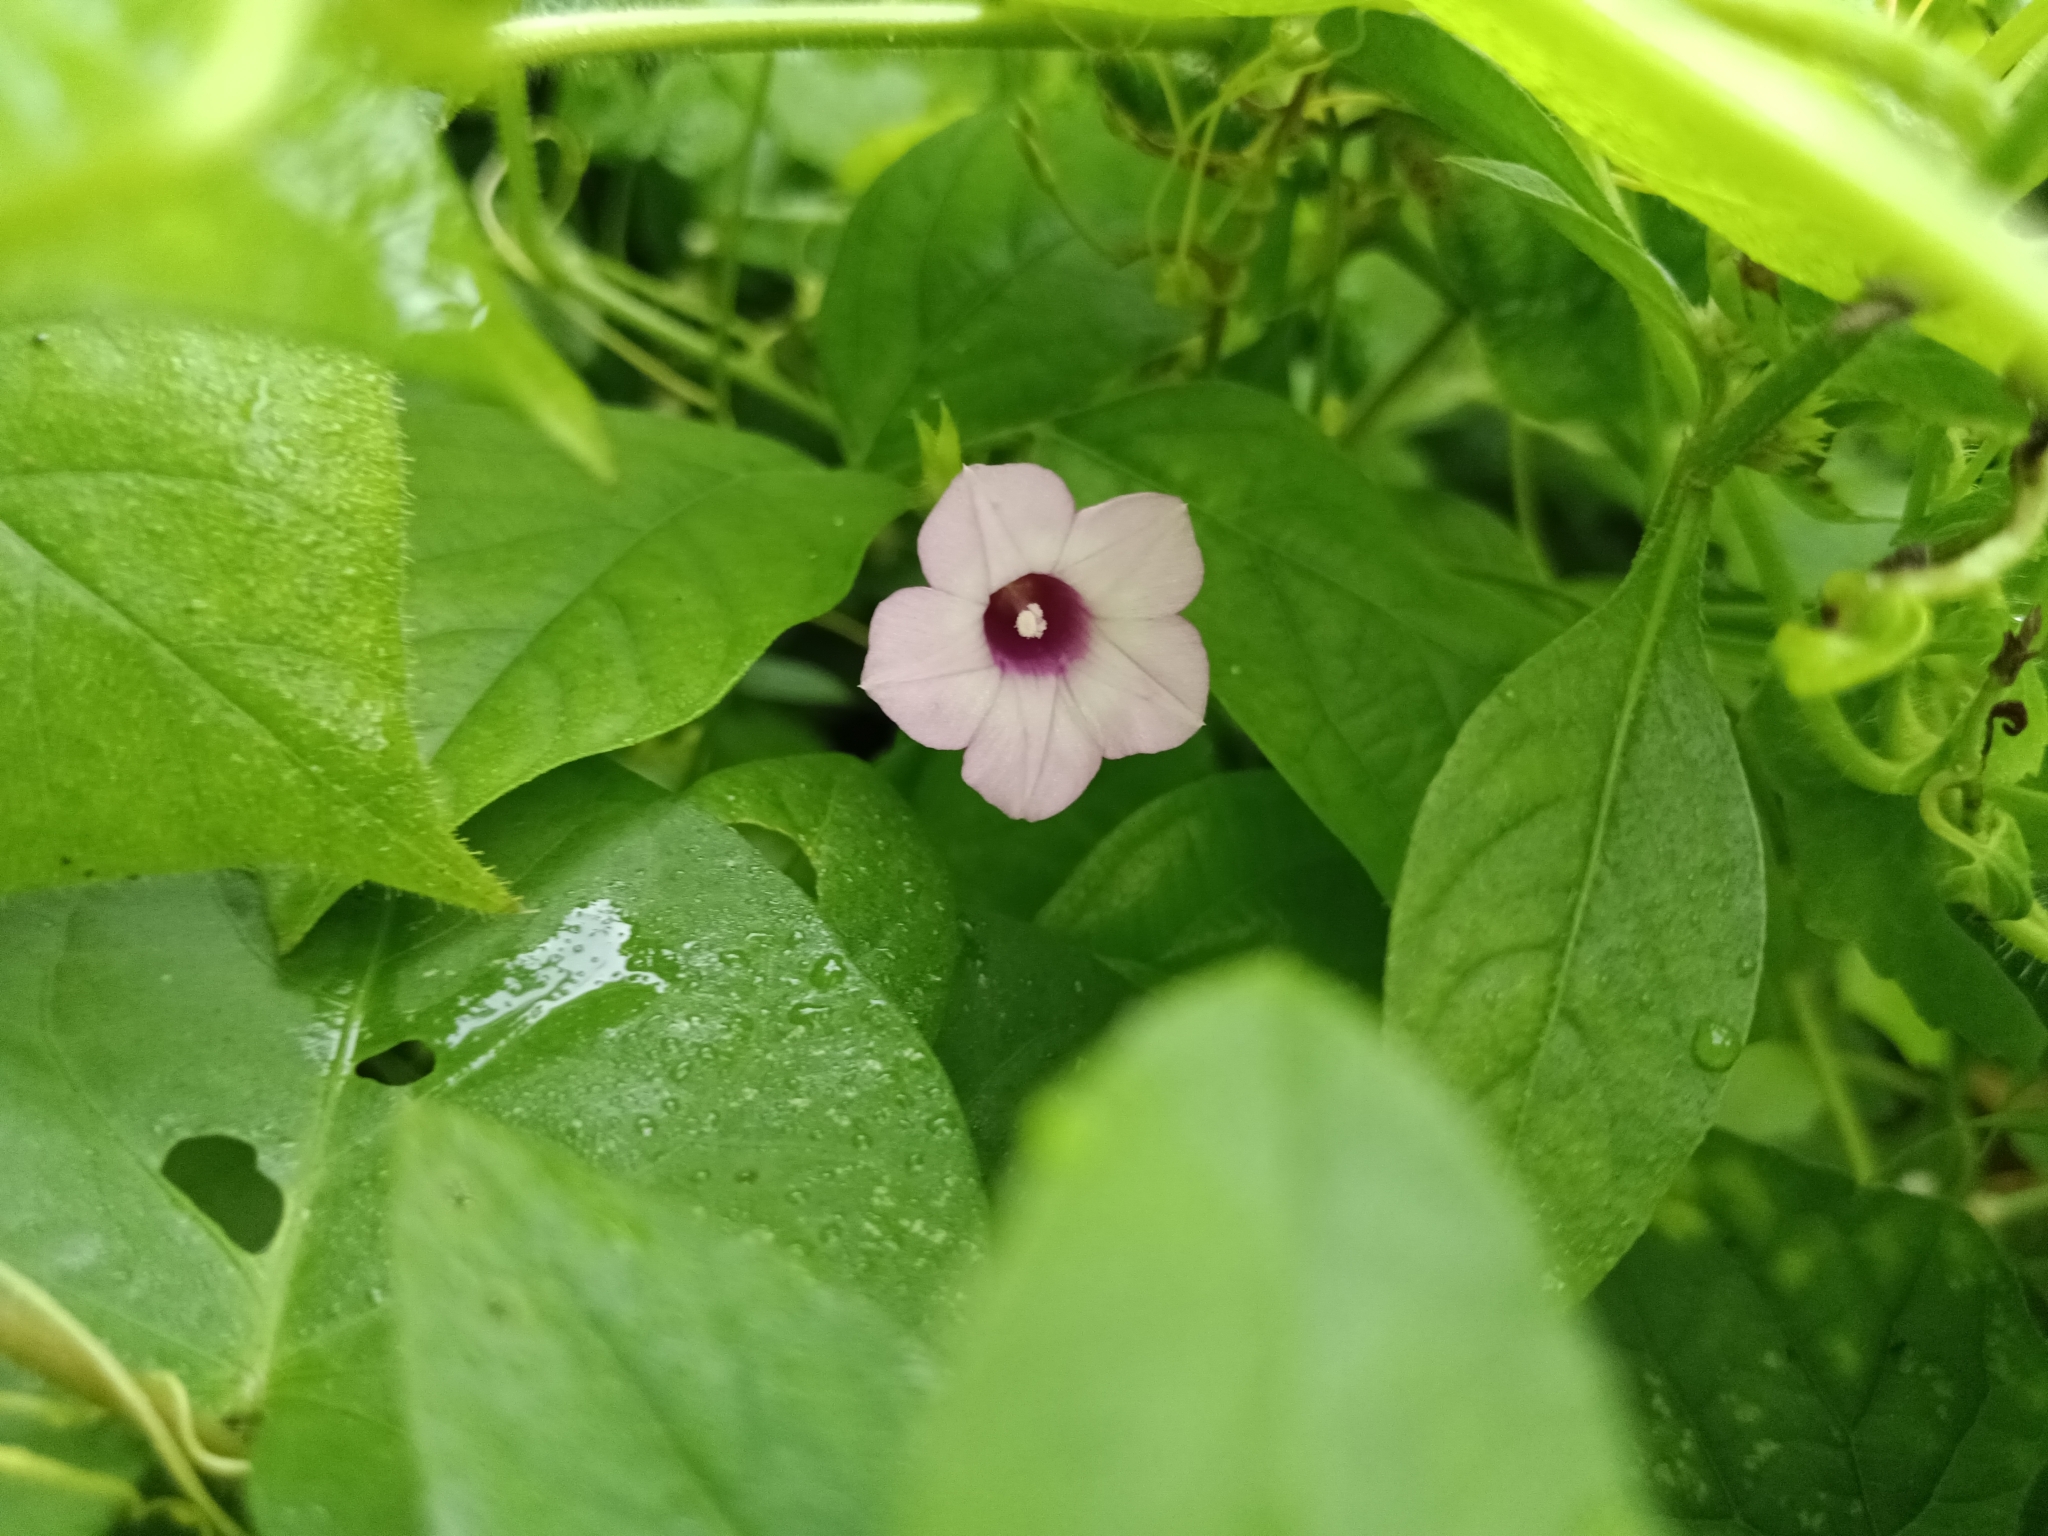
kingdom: Plantae
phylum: Tracheophyta
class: Magnoliopsida
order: Solanales
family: Convolvulaceae
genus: Ipomoea
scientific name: Ipomoea triloba
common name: Little-bell
